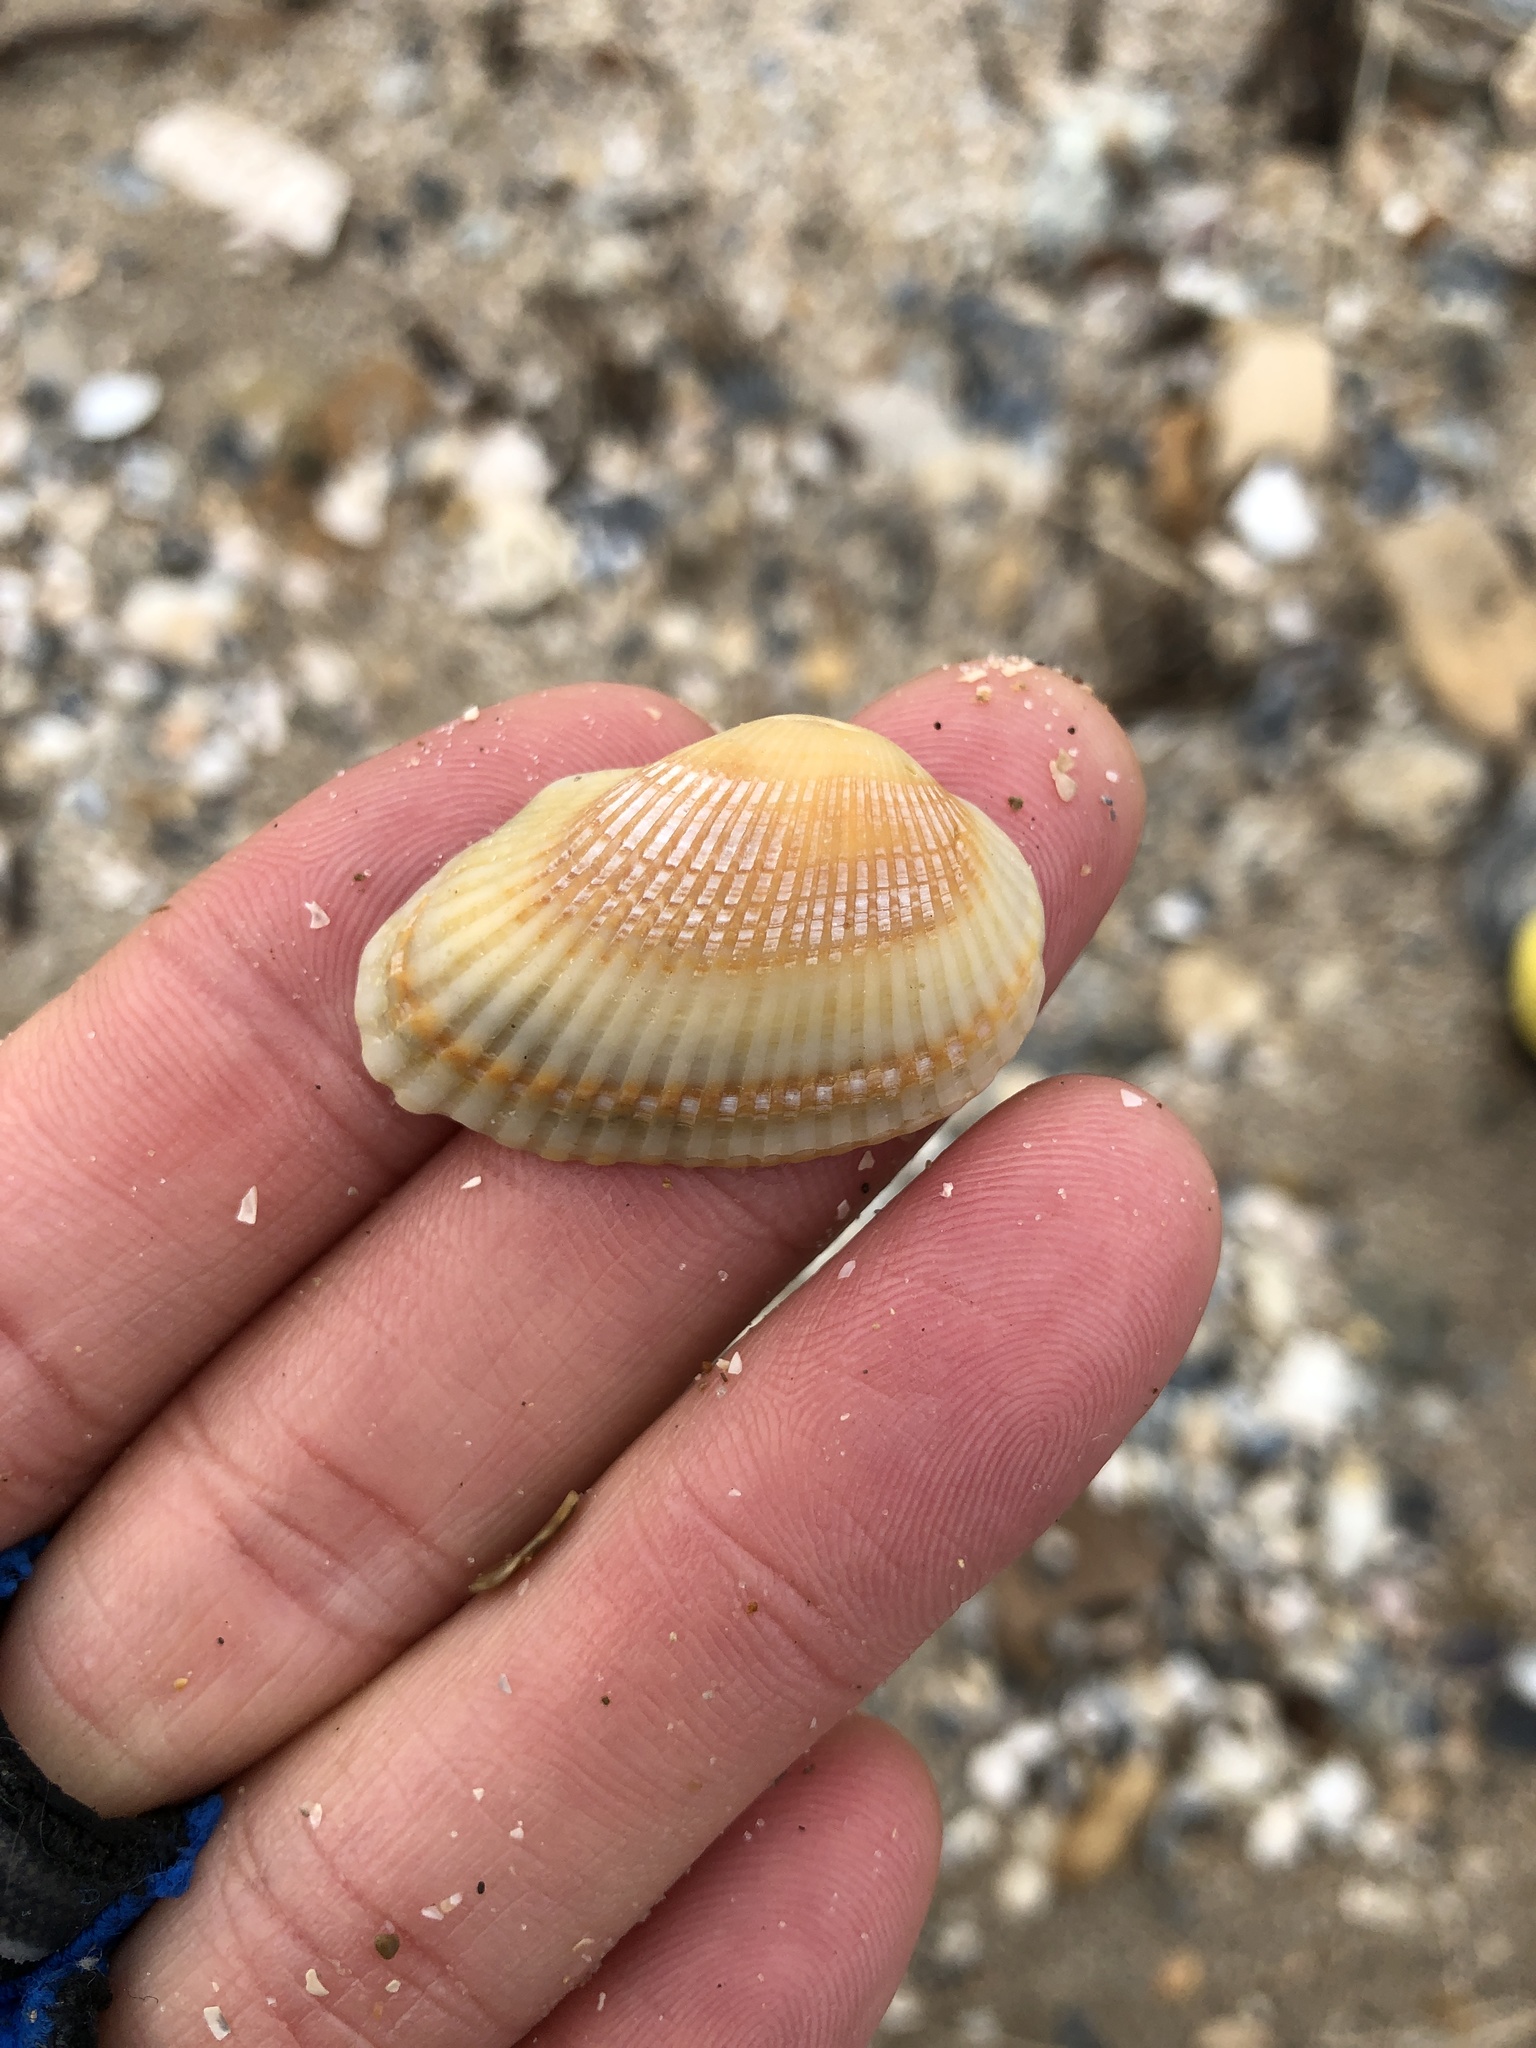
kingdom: Animalia
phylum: Mollusca
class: Bivalvia
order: Arcida
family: Arcidae
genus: Anadara
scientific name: Anadara transversa
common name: Transverse ark
